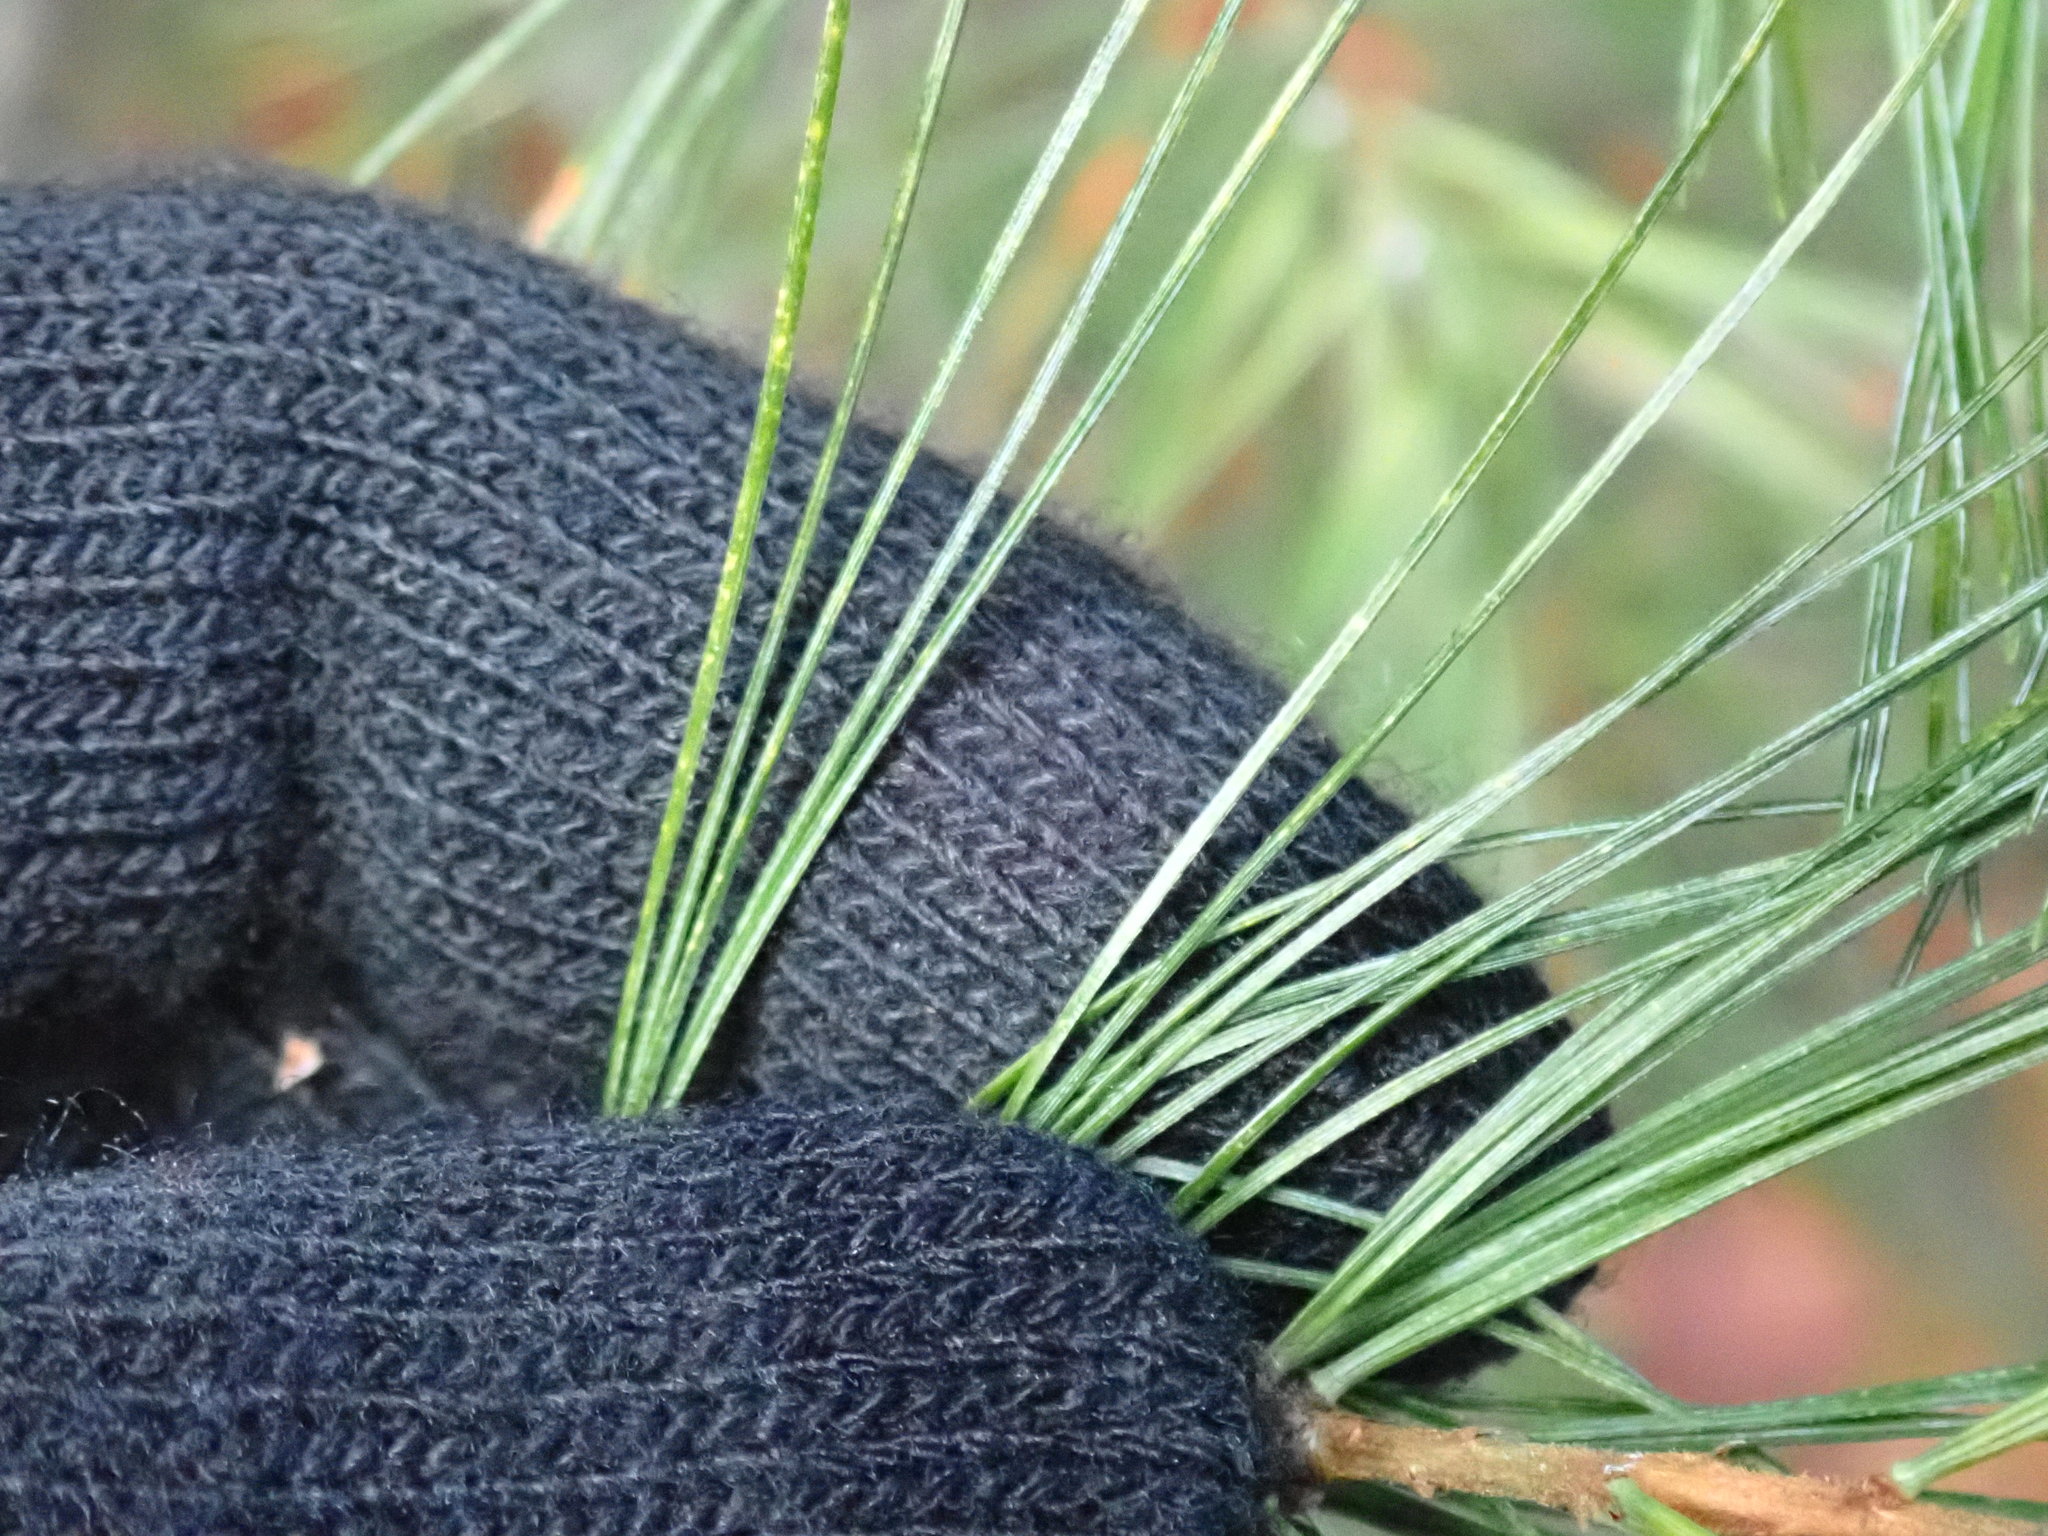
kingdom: Plantae
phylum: Tracheophyta
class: Pinopsida
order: Pinales
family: Pinaceae
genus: Pinus
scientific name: Pinus strobus
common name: Weymouth pine
